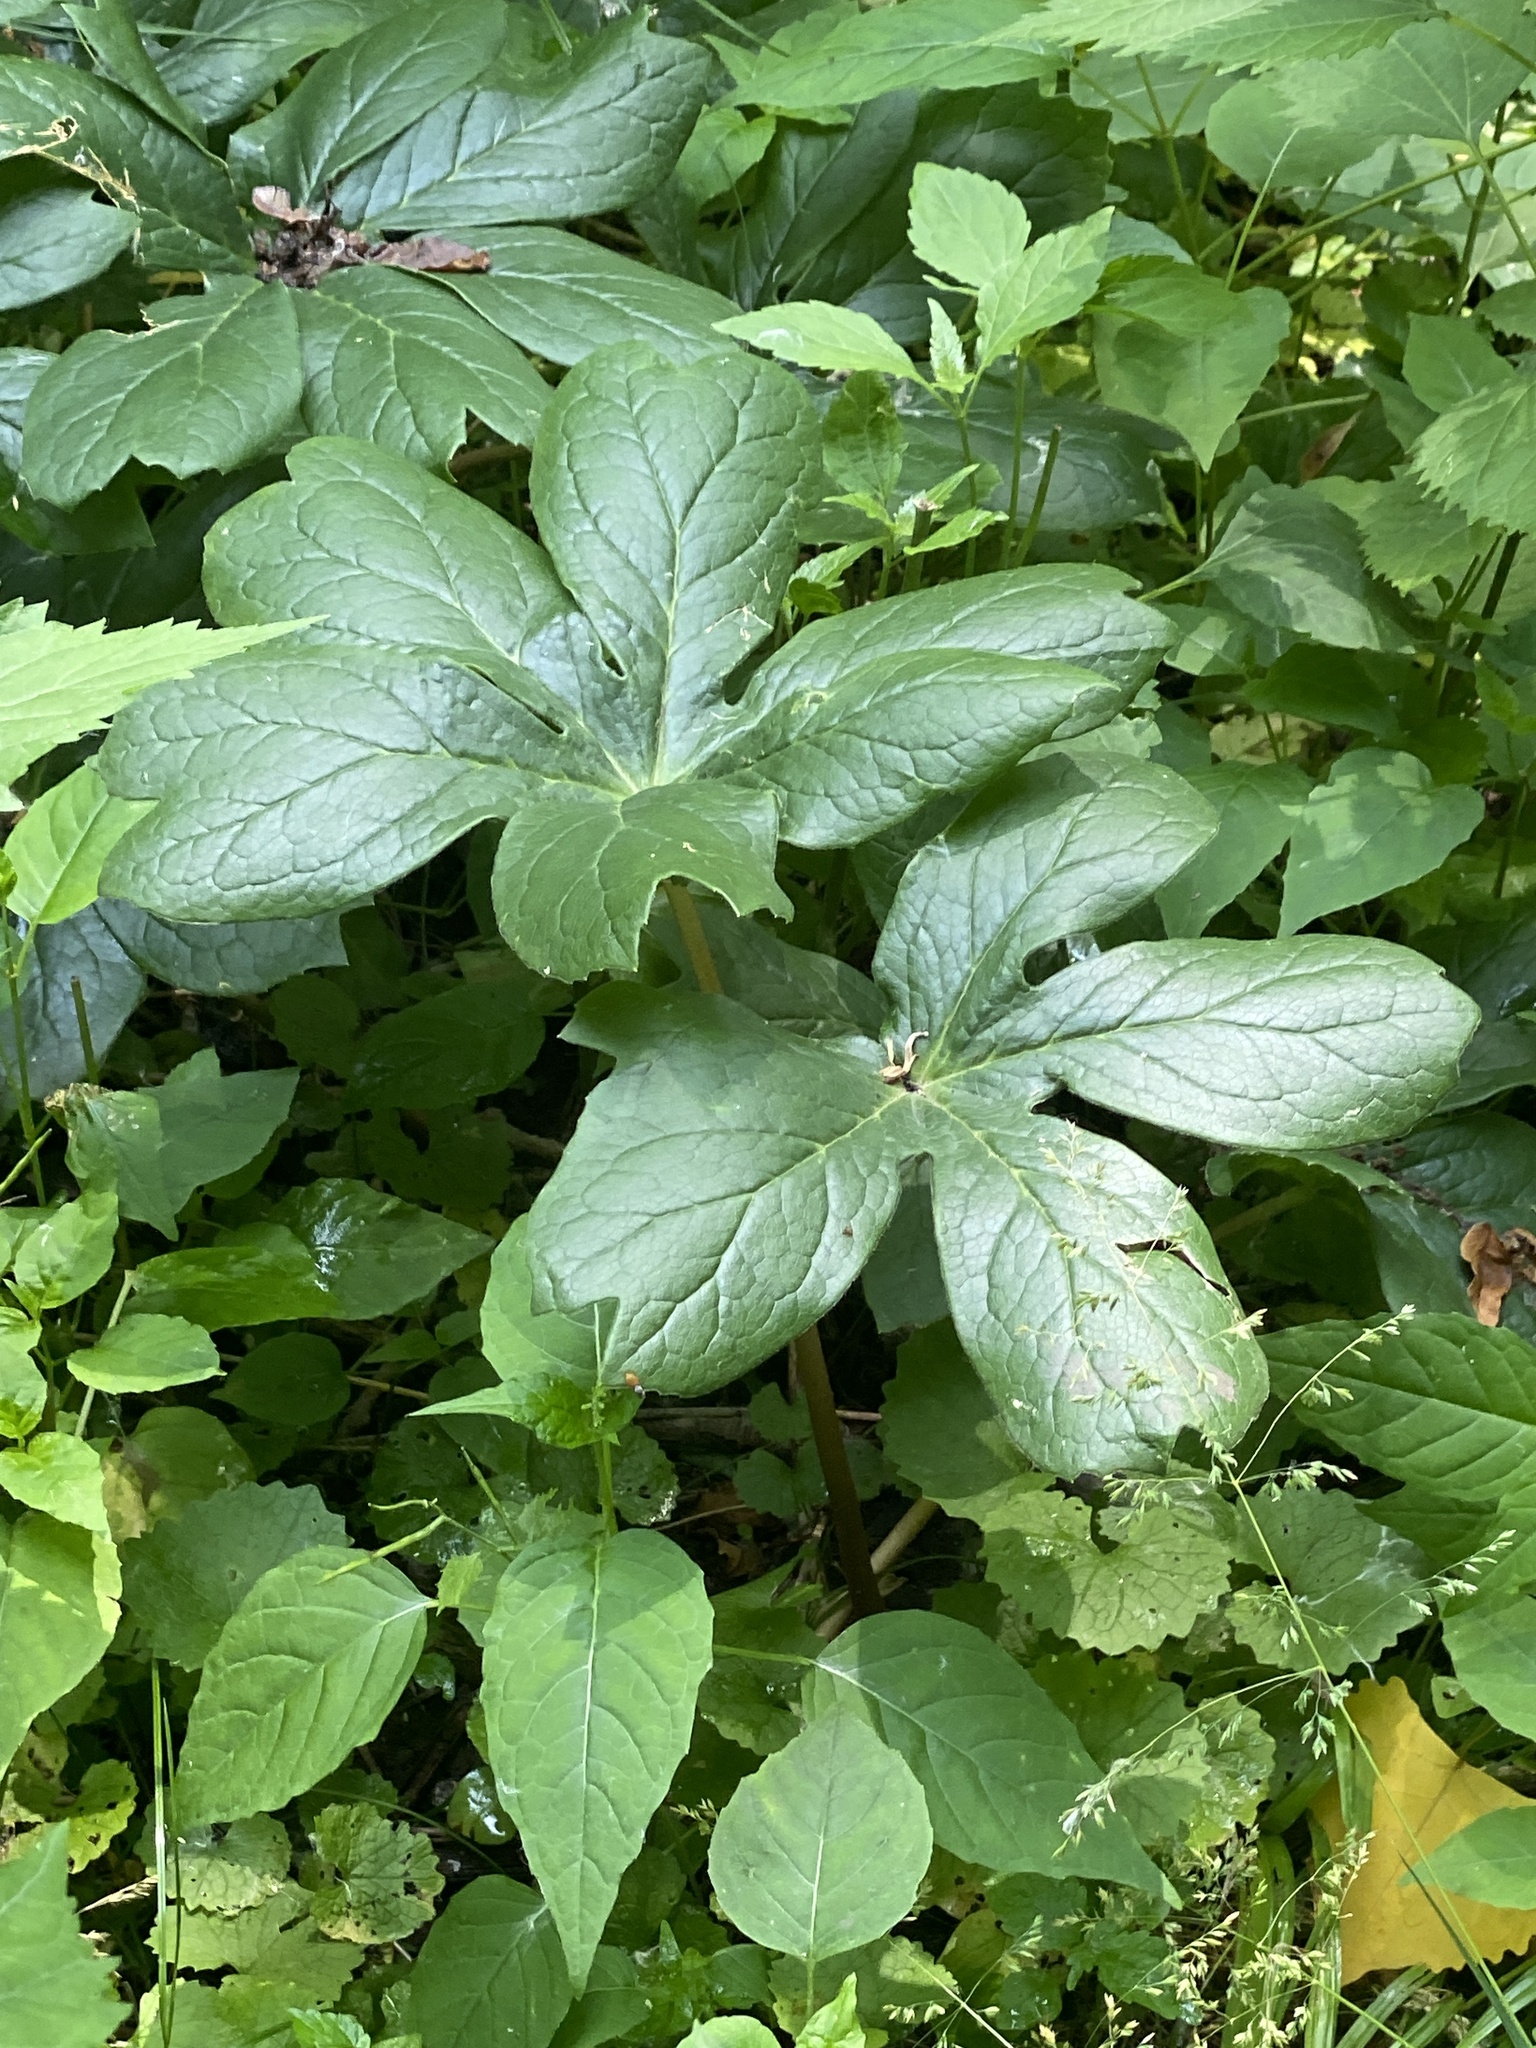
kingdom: Plantae
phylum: Tracheophyta
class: Magnoliopsida
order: Ranunculales
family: Berberidaceae
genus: Podophyllum
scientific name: Podophyllum peltatum
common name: Wild mandrake
